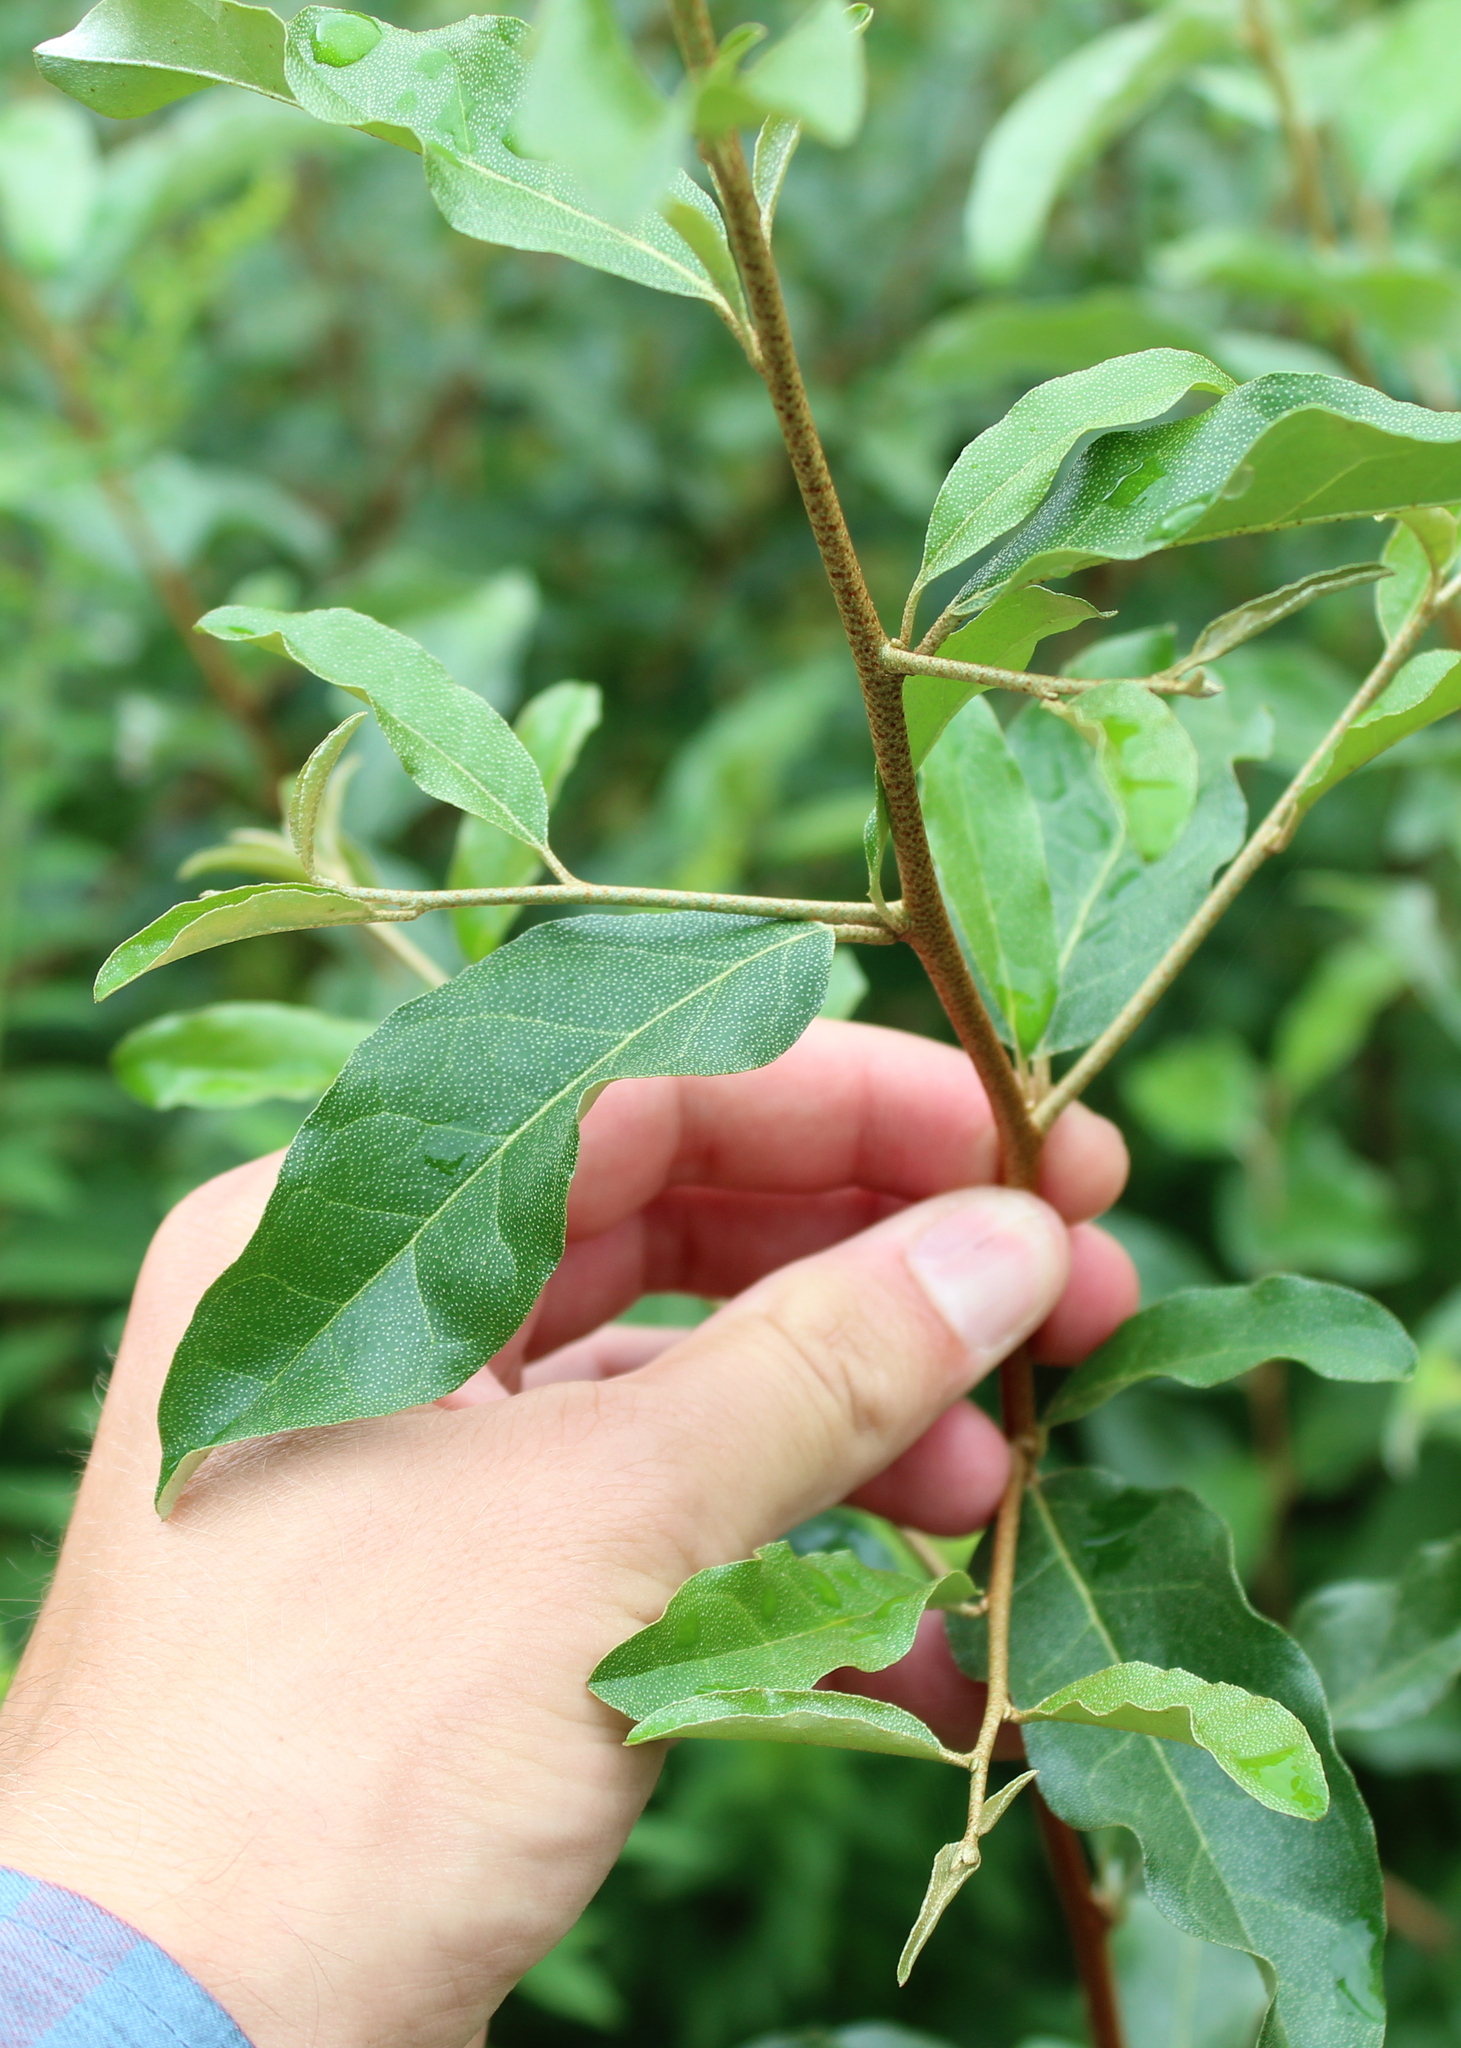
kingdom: Plantae
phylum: Tracheophyta
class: Magnoliopsida
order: Rosales
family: Elaeagnaceae
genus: Elaeagnus
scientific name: Elaeagnus umbellata
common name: Autumn olive
